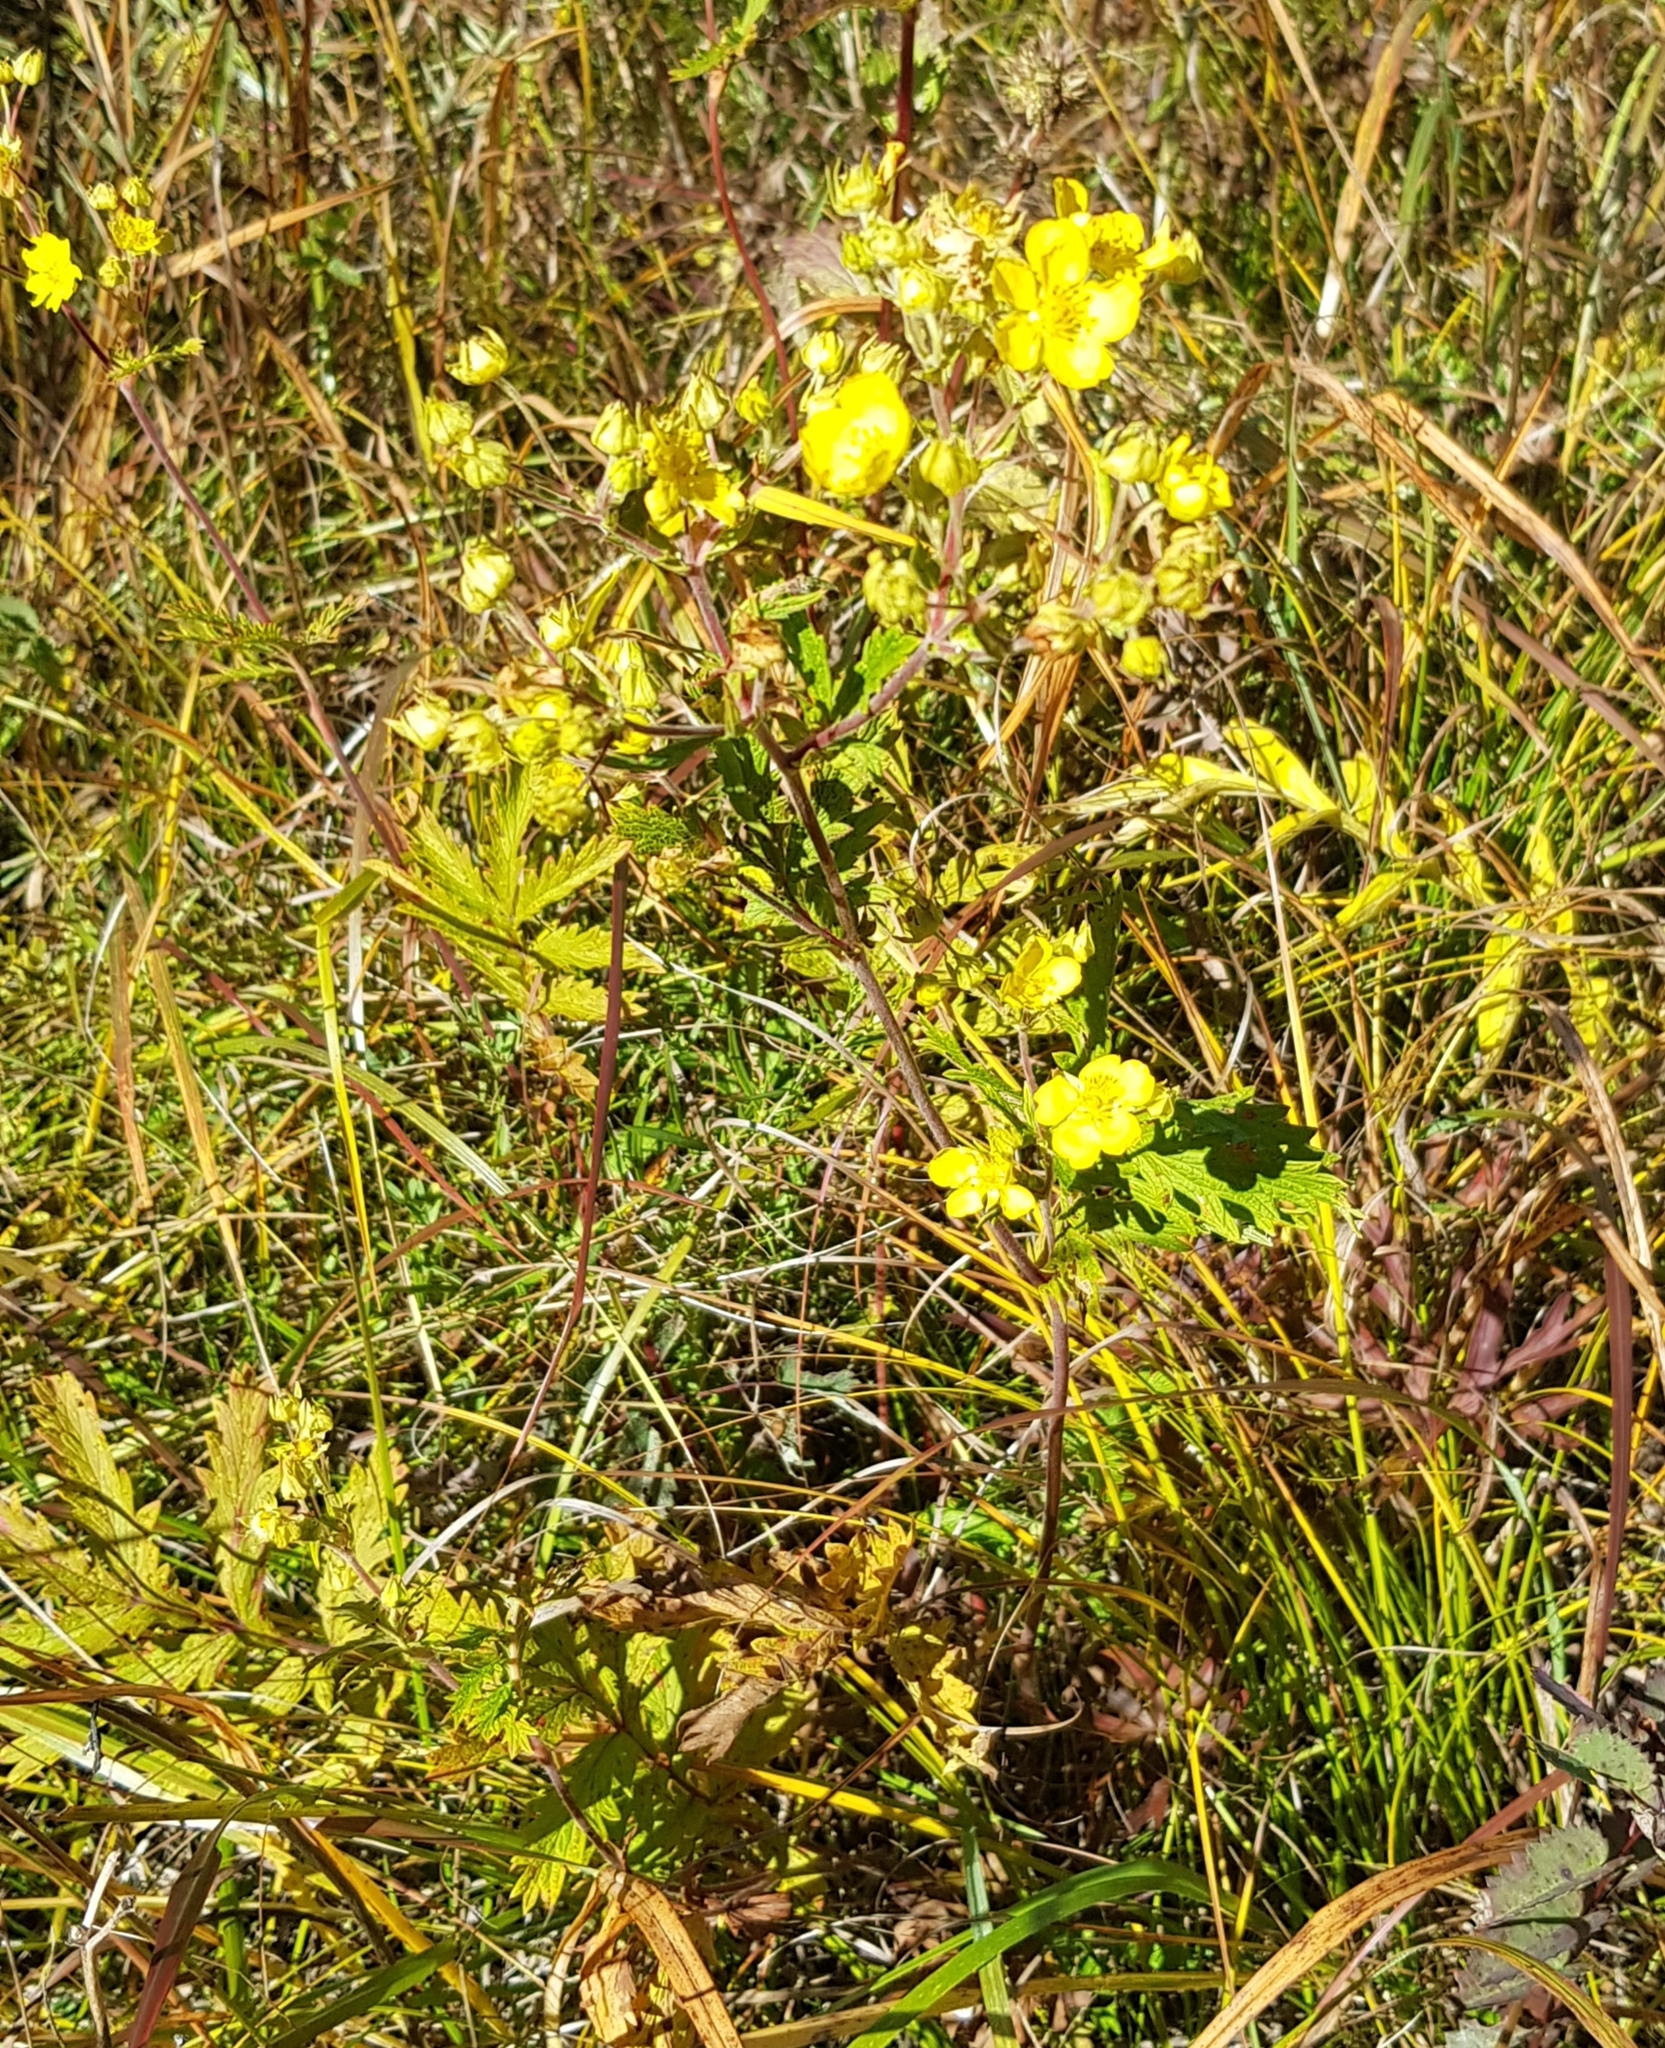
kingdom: Plantae
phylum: Tracheophyta
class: Magnoliopsida
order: Rosales
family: Rosaceae
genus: Potentilla
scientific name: Potentilla tanacetifolia
